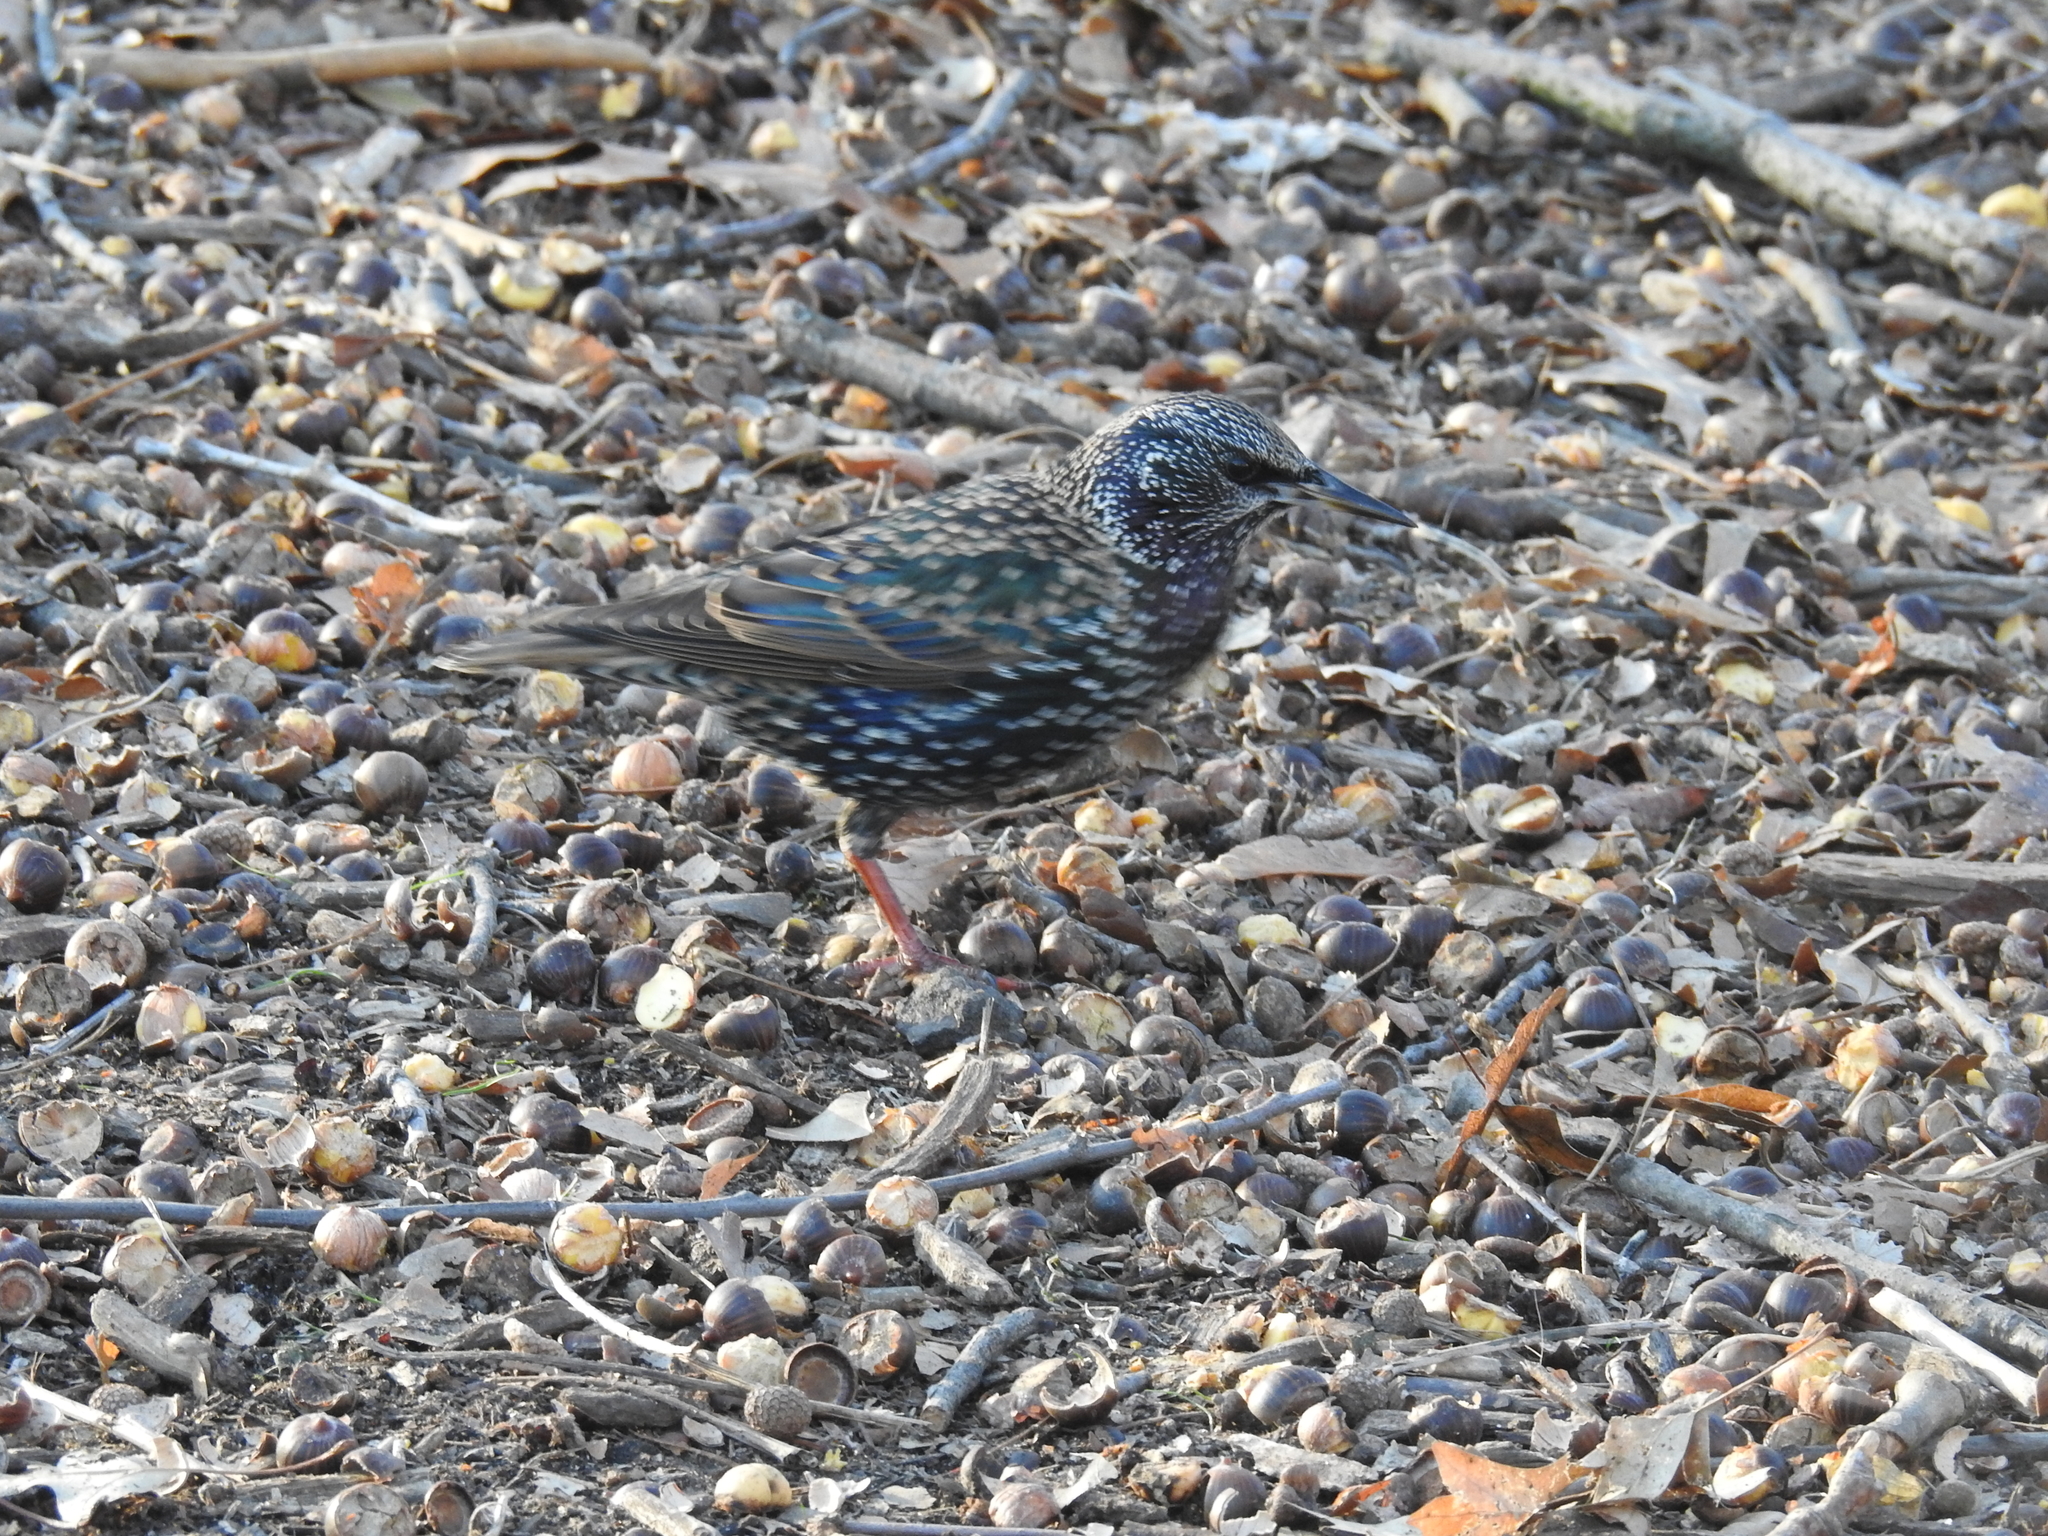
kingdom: Animalia
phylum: Chordata
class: Aves
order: Passeriformes
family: Sturnidae
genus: Sturnus
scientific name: Sturnus vulgaris
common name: Common starling
